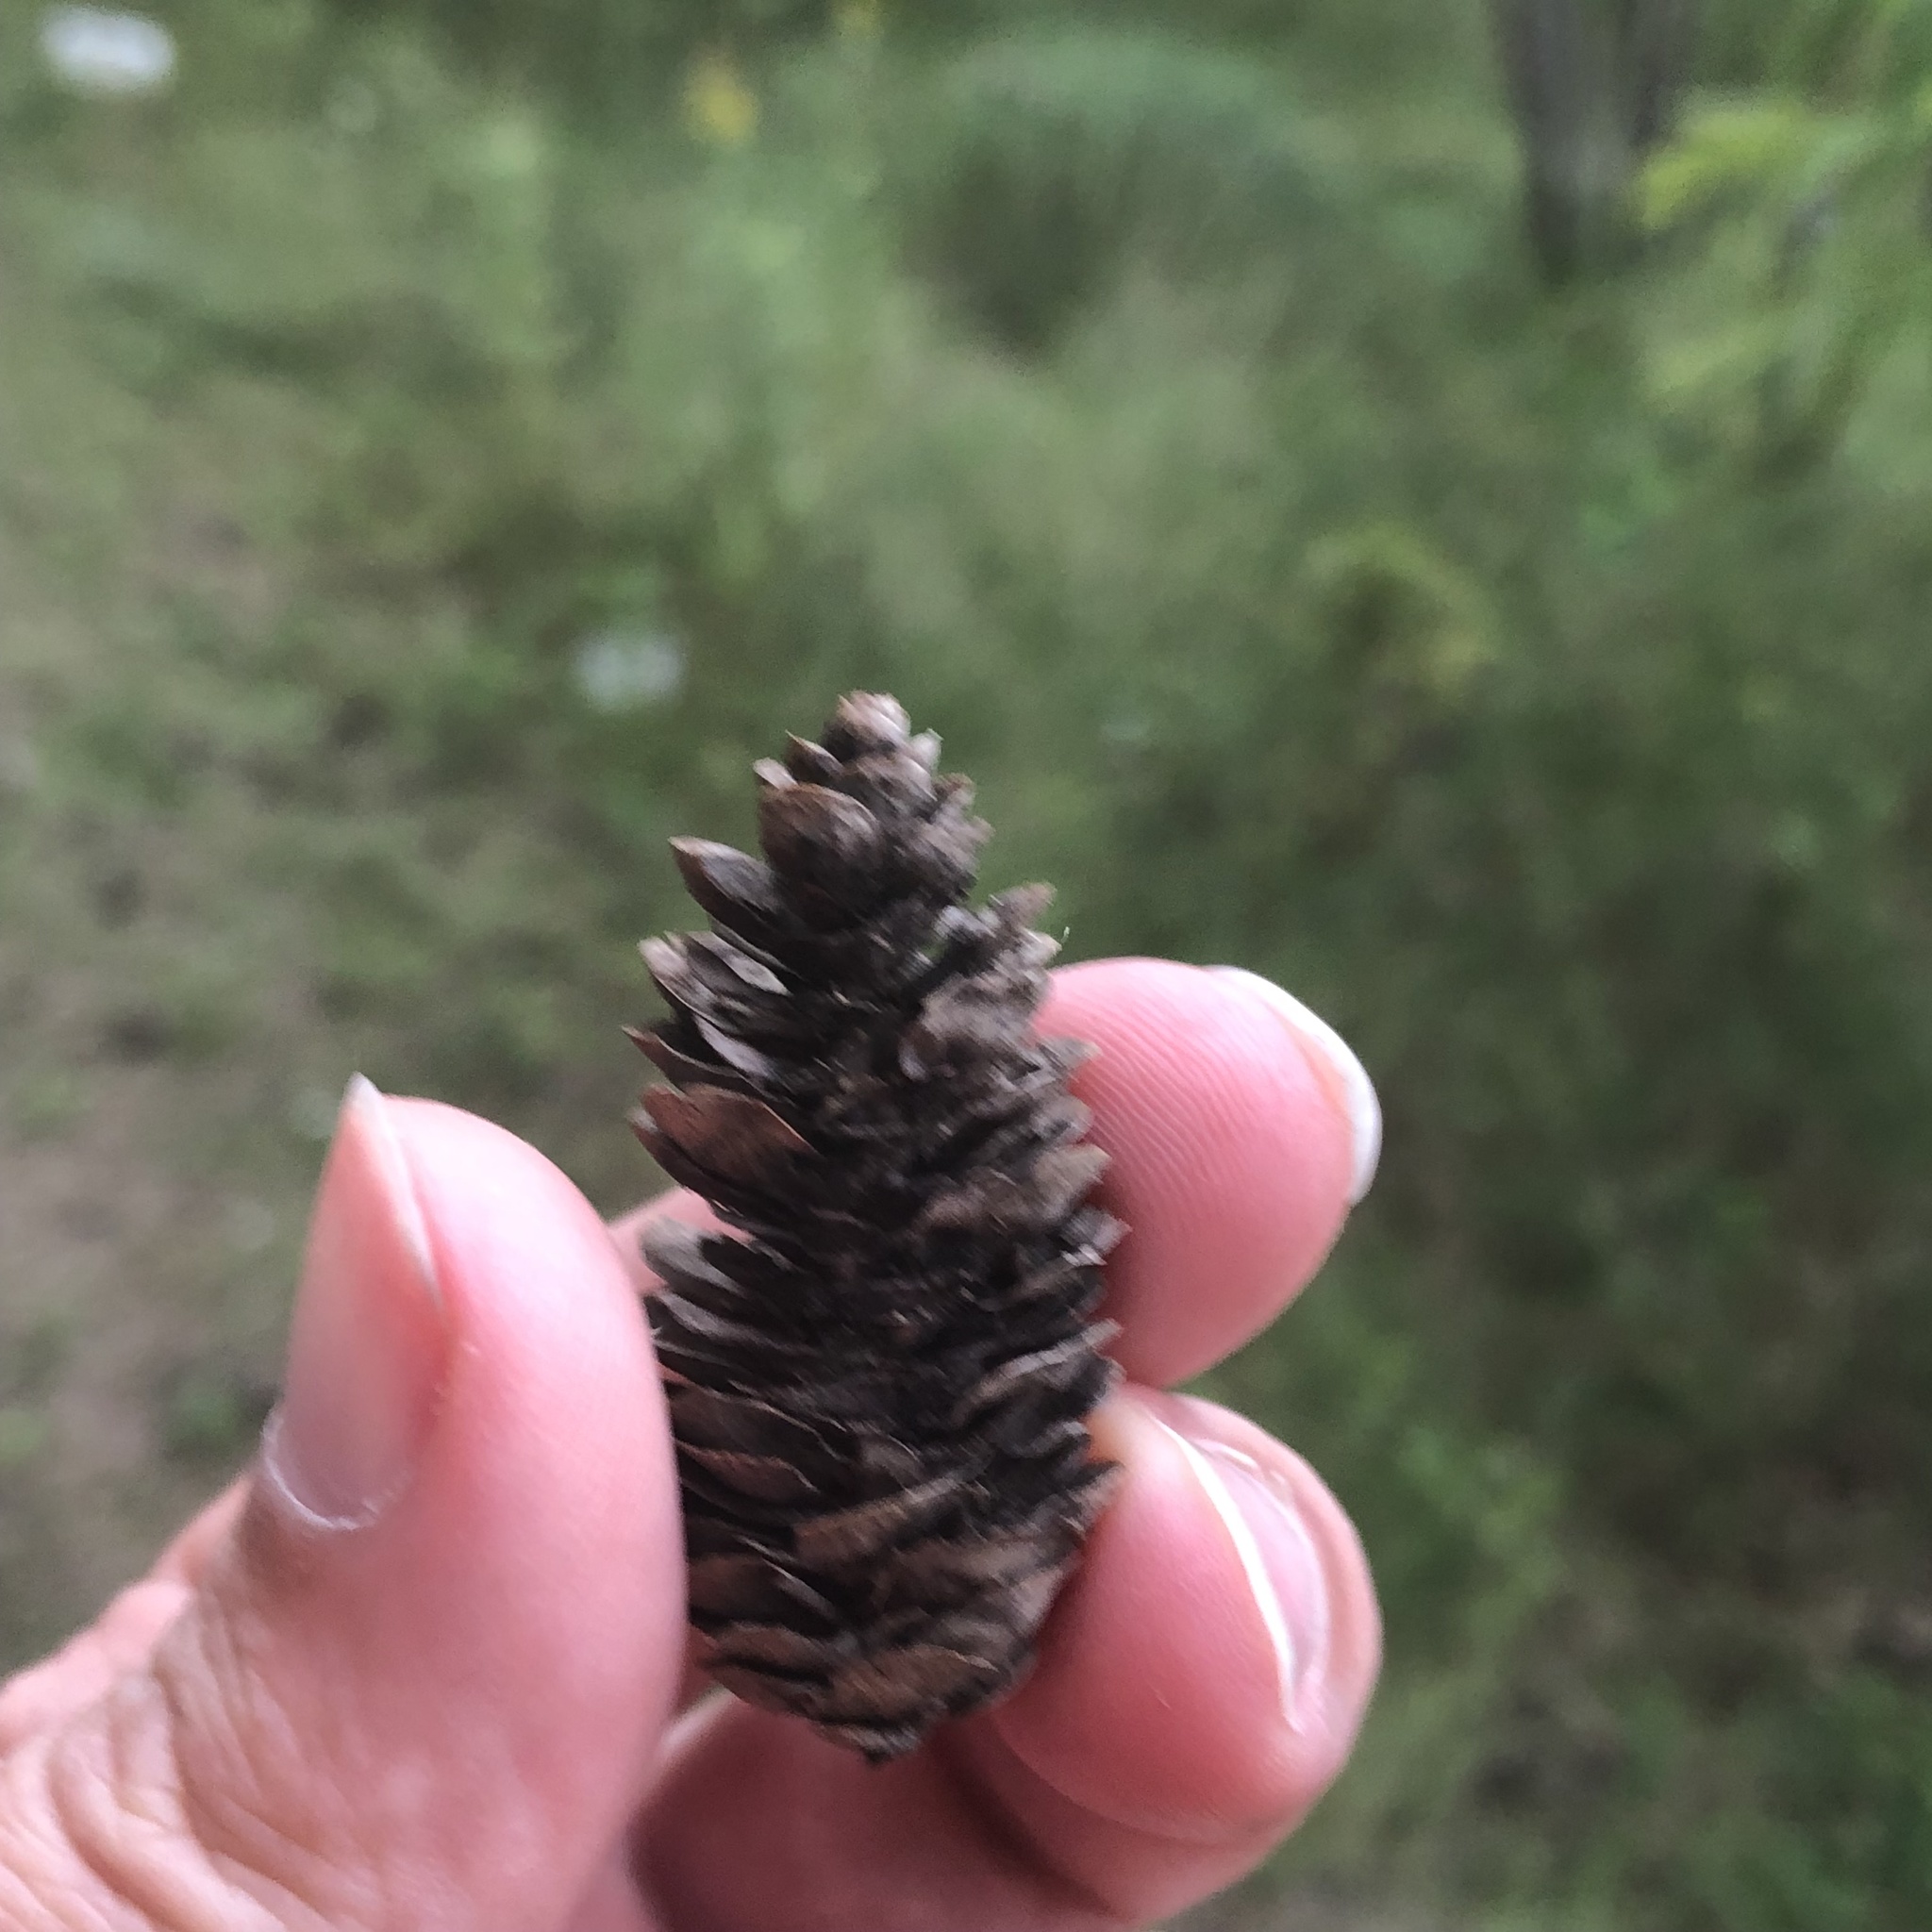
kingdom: Plantae
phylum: Tracheophyta
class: Pinopsida
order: Pinales
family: Pinaceae
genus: Picea
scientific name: Picea glauca
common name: White spruce
